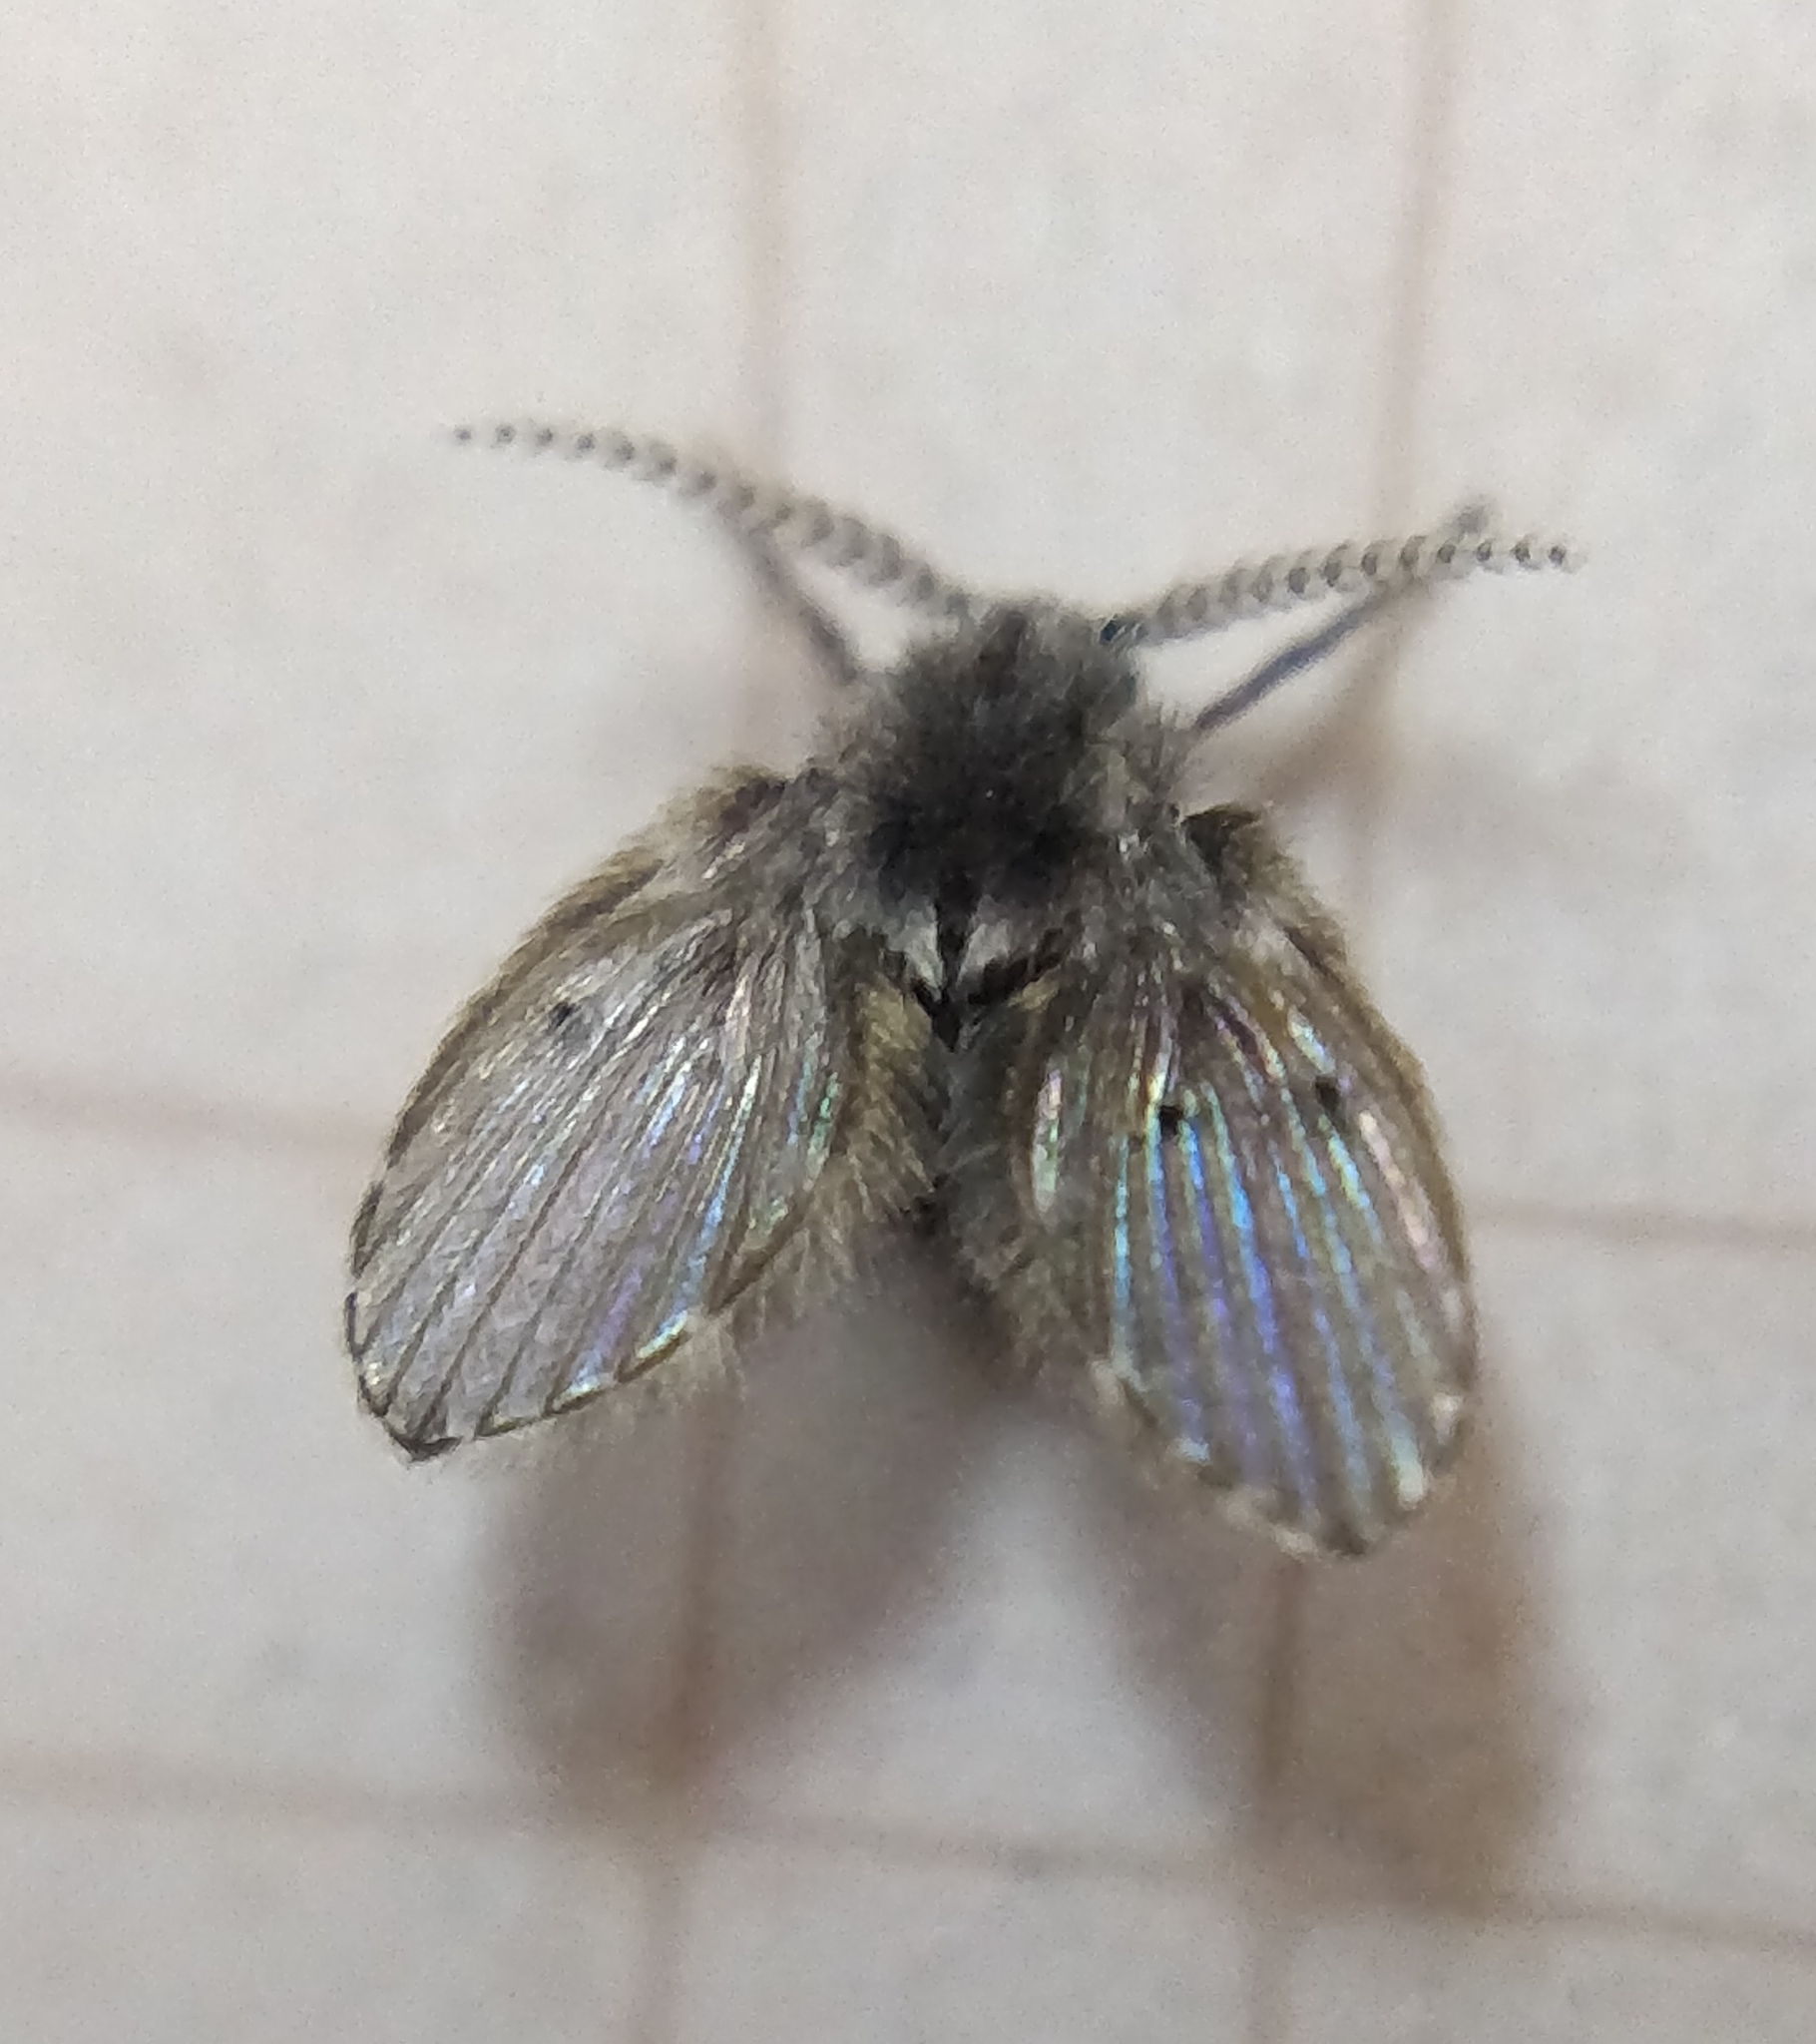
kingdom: Animalia
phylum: Arthropoda
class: Insecta
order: Diptera
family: Psychodidae
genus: Clogmia
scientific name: Clogmia albipunctatus
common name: White-spotted moth fly
